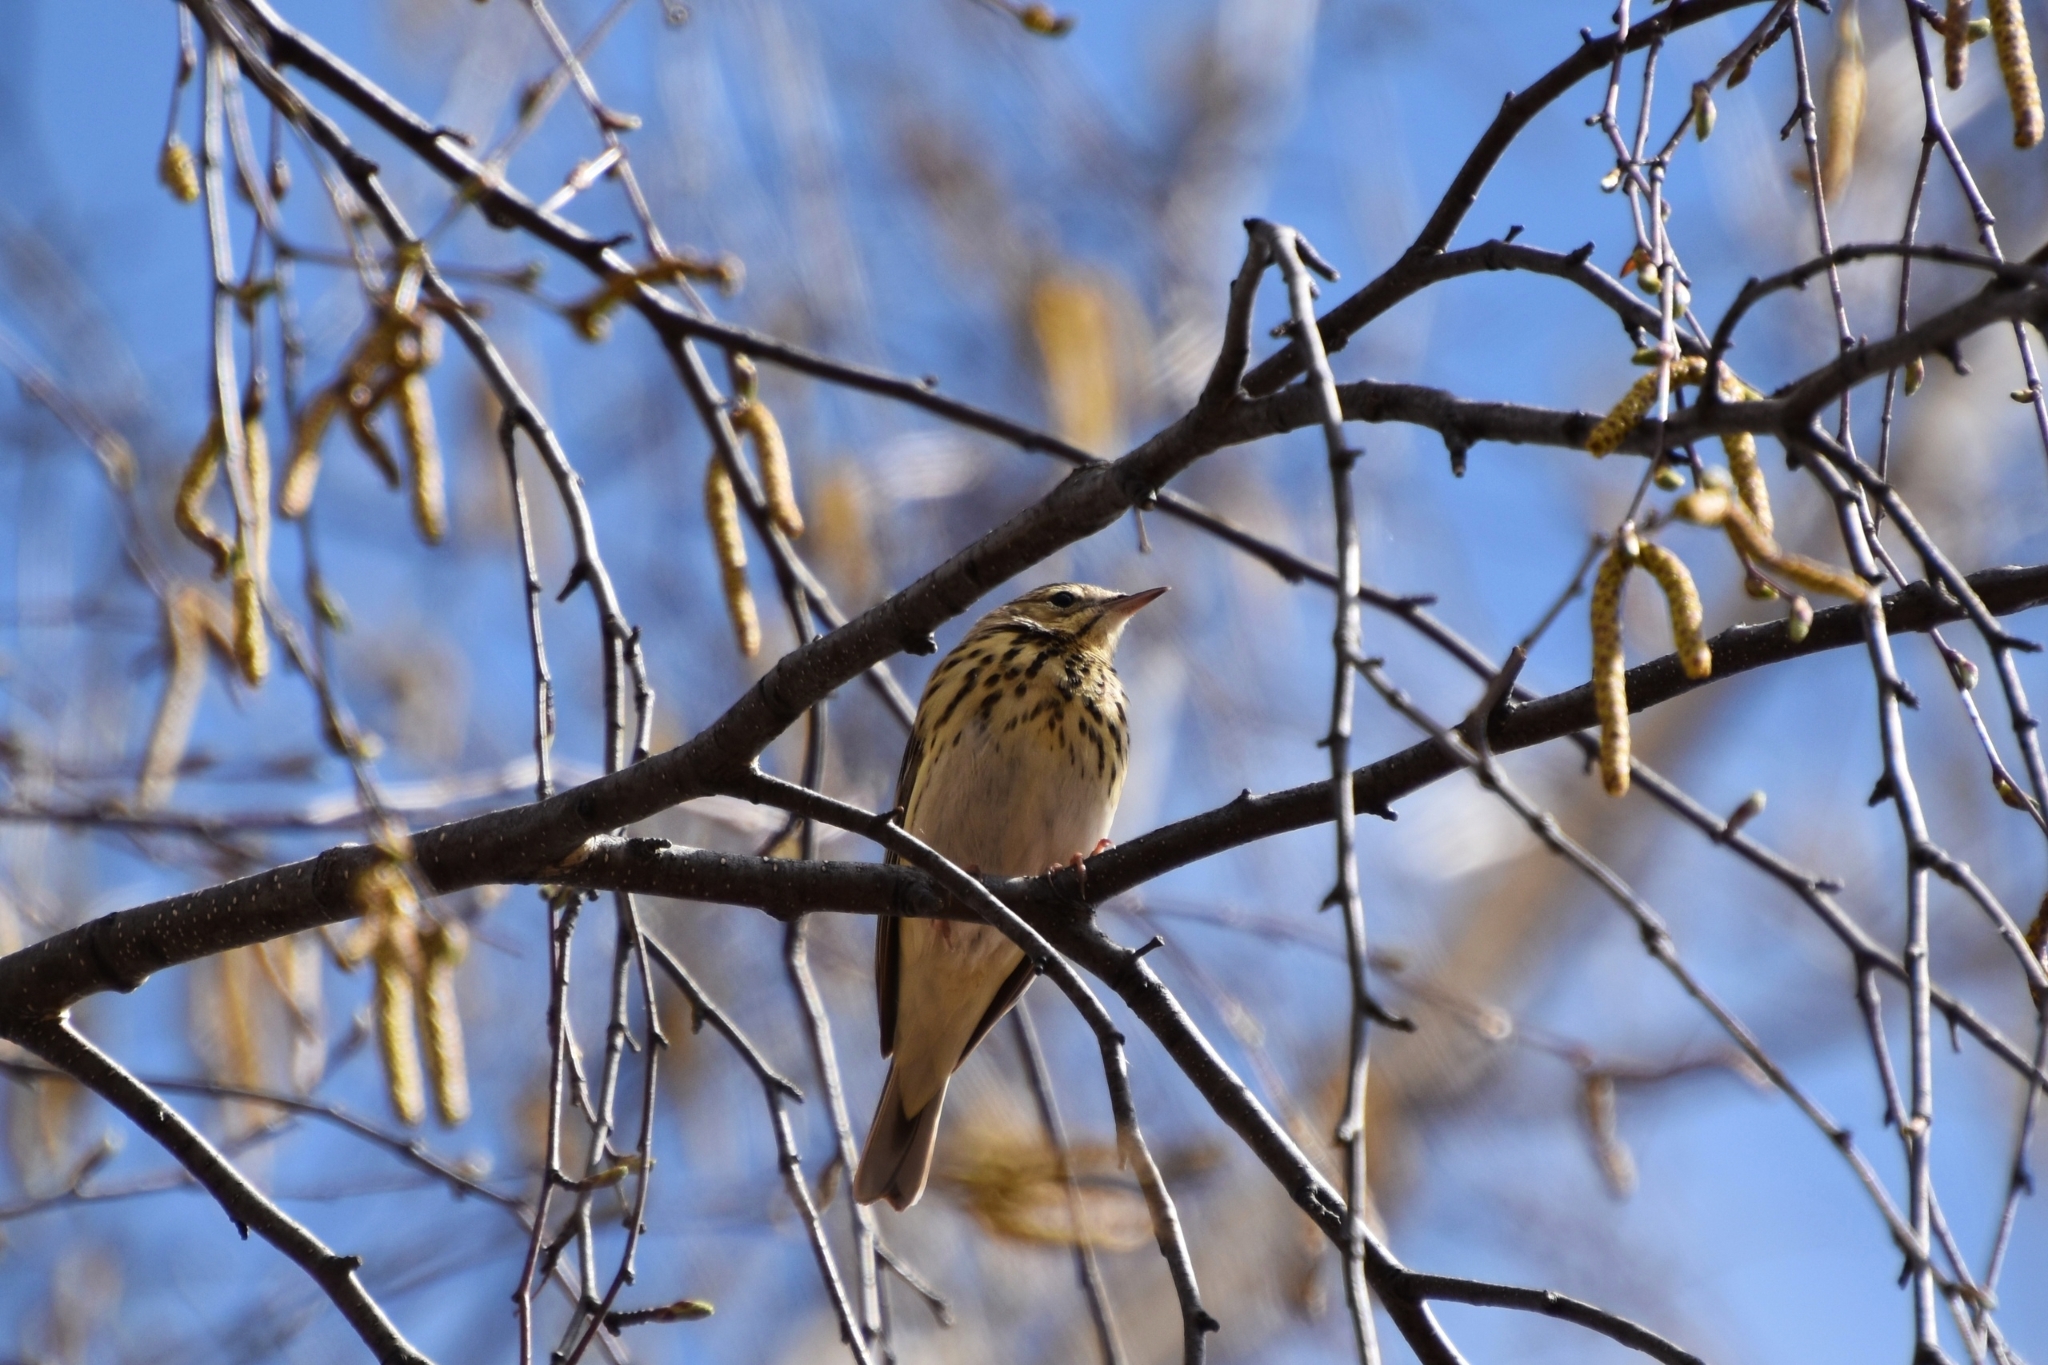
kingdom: Animalia
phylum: Chordata
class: Aves
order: Passeriformes
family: Motacillidae
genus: Anthus
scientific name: Anthus trivialis
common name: Tree pipit
